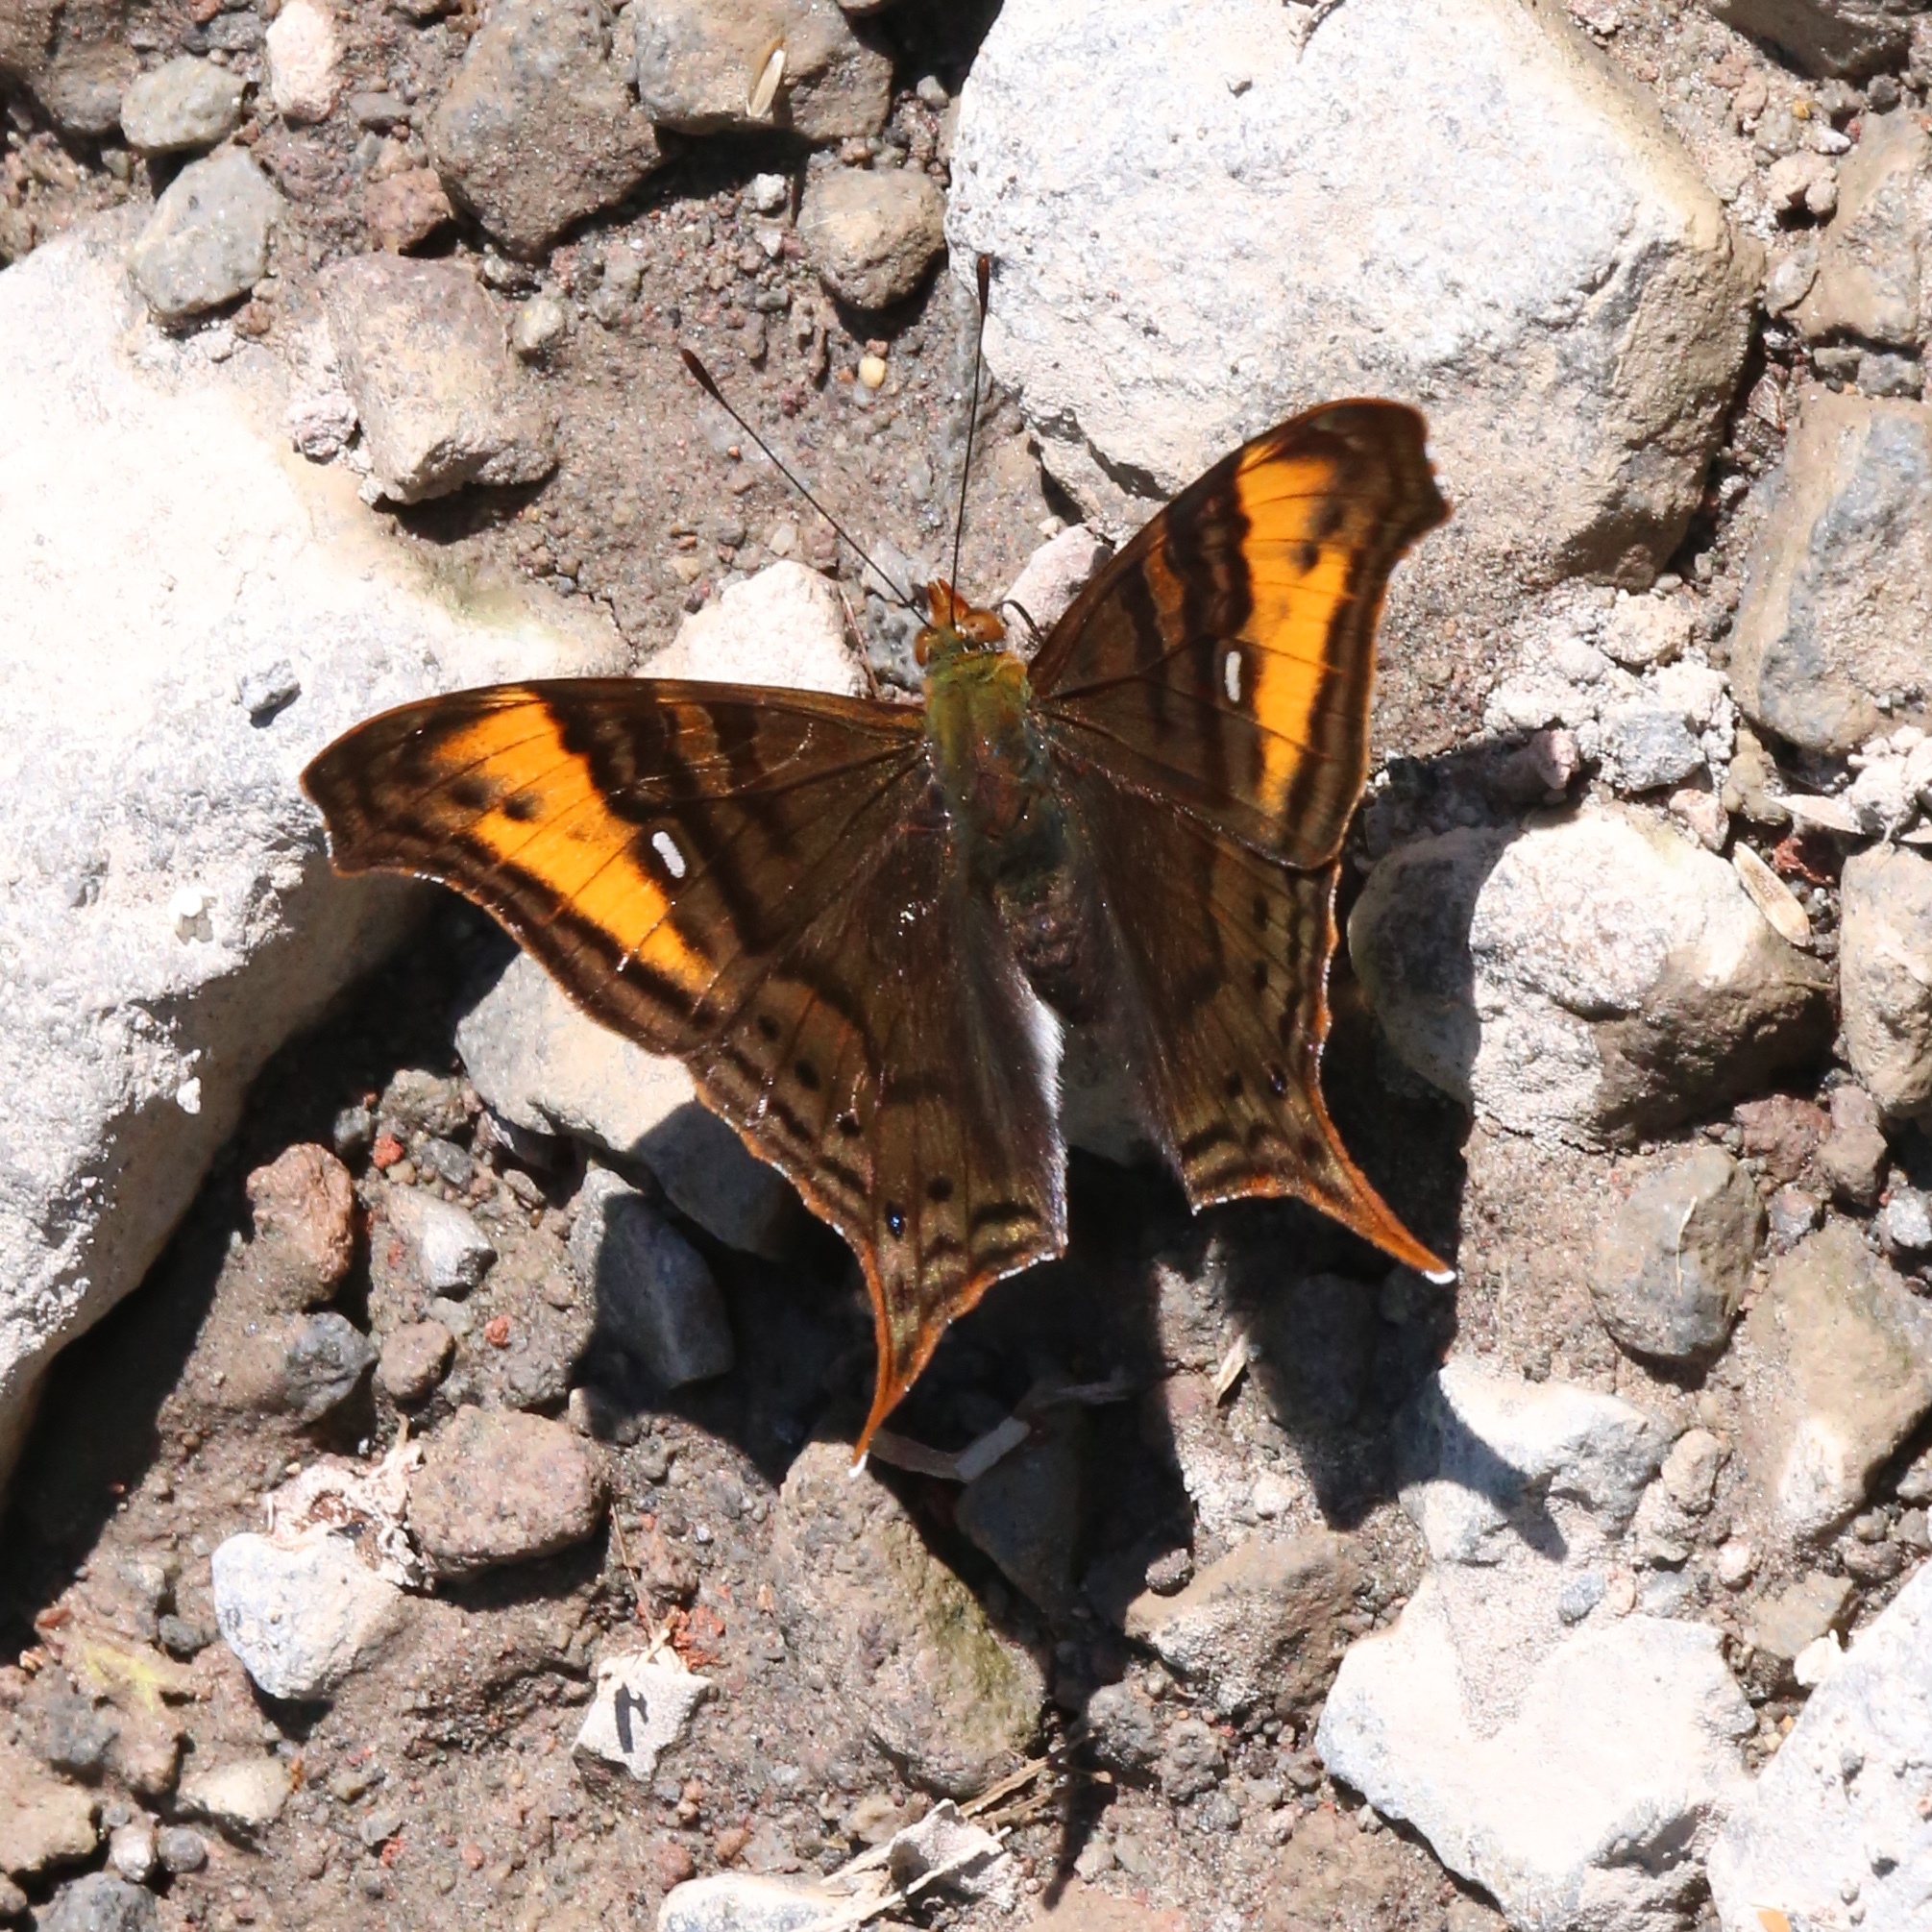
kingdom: Animalia
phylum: Arthropoda
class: Insecta
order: Lepidoptera
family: Nymphalidae
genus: Hypanartia
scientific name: Hypanartia dione
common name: Banded mapwing
